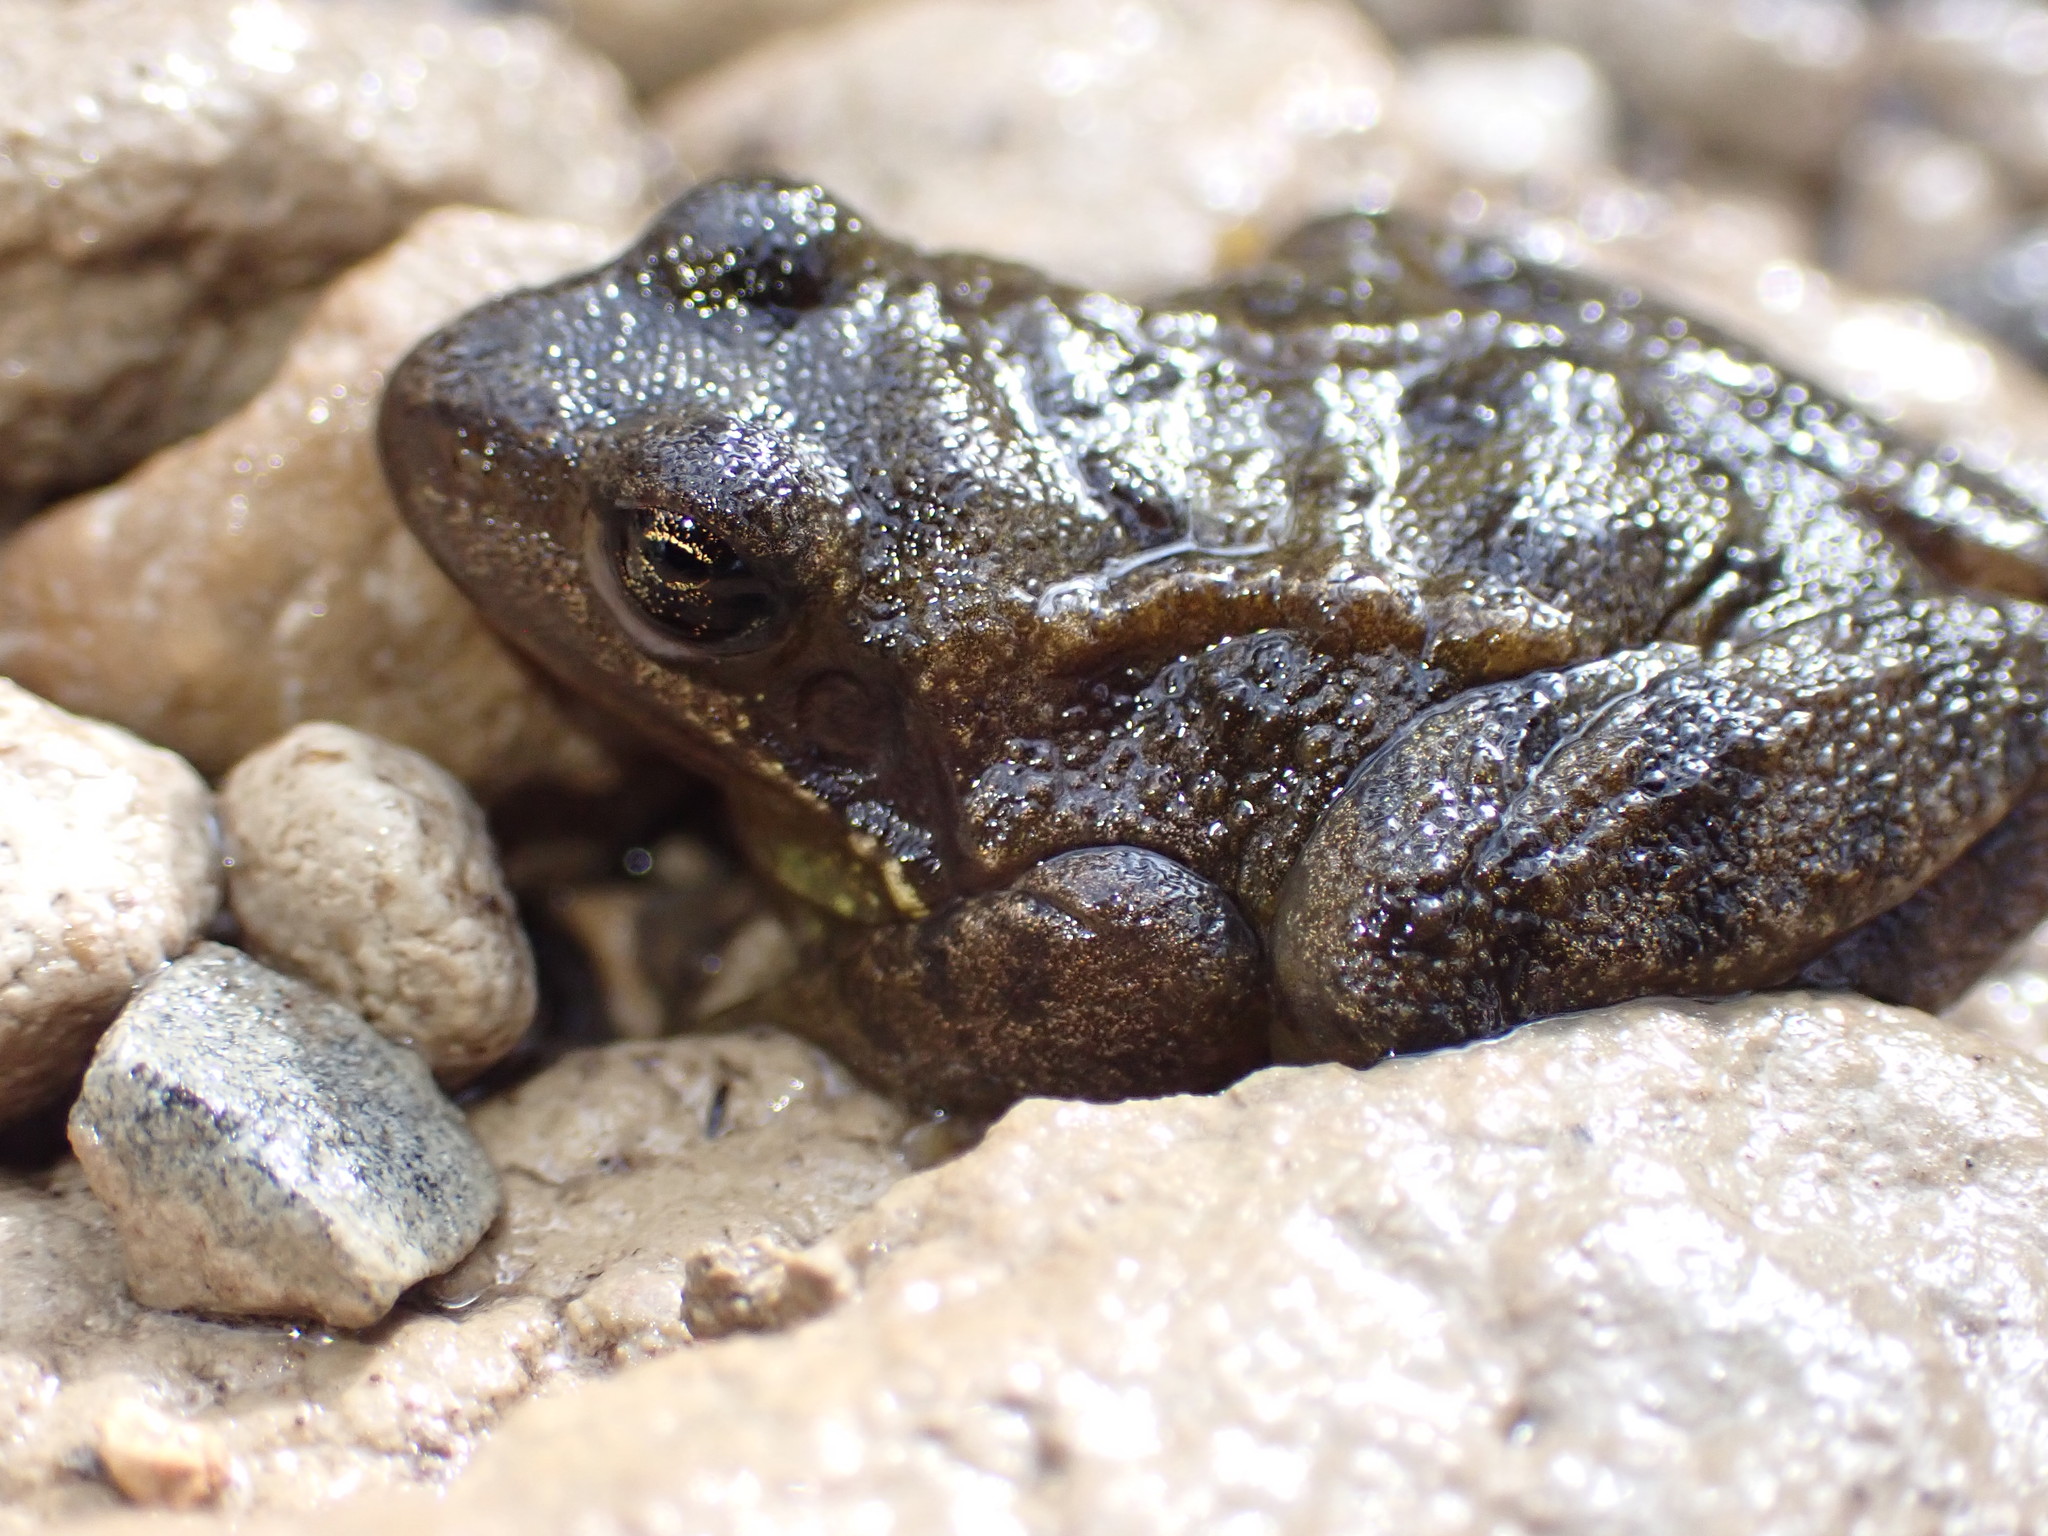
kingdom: Animalia
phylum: Chordata
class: Amphibia
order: Anura
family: Ranidae
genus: Rana
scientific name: Rana temporaria
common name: Common frog
